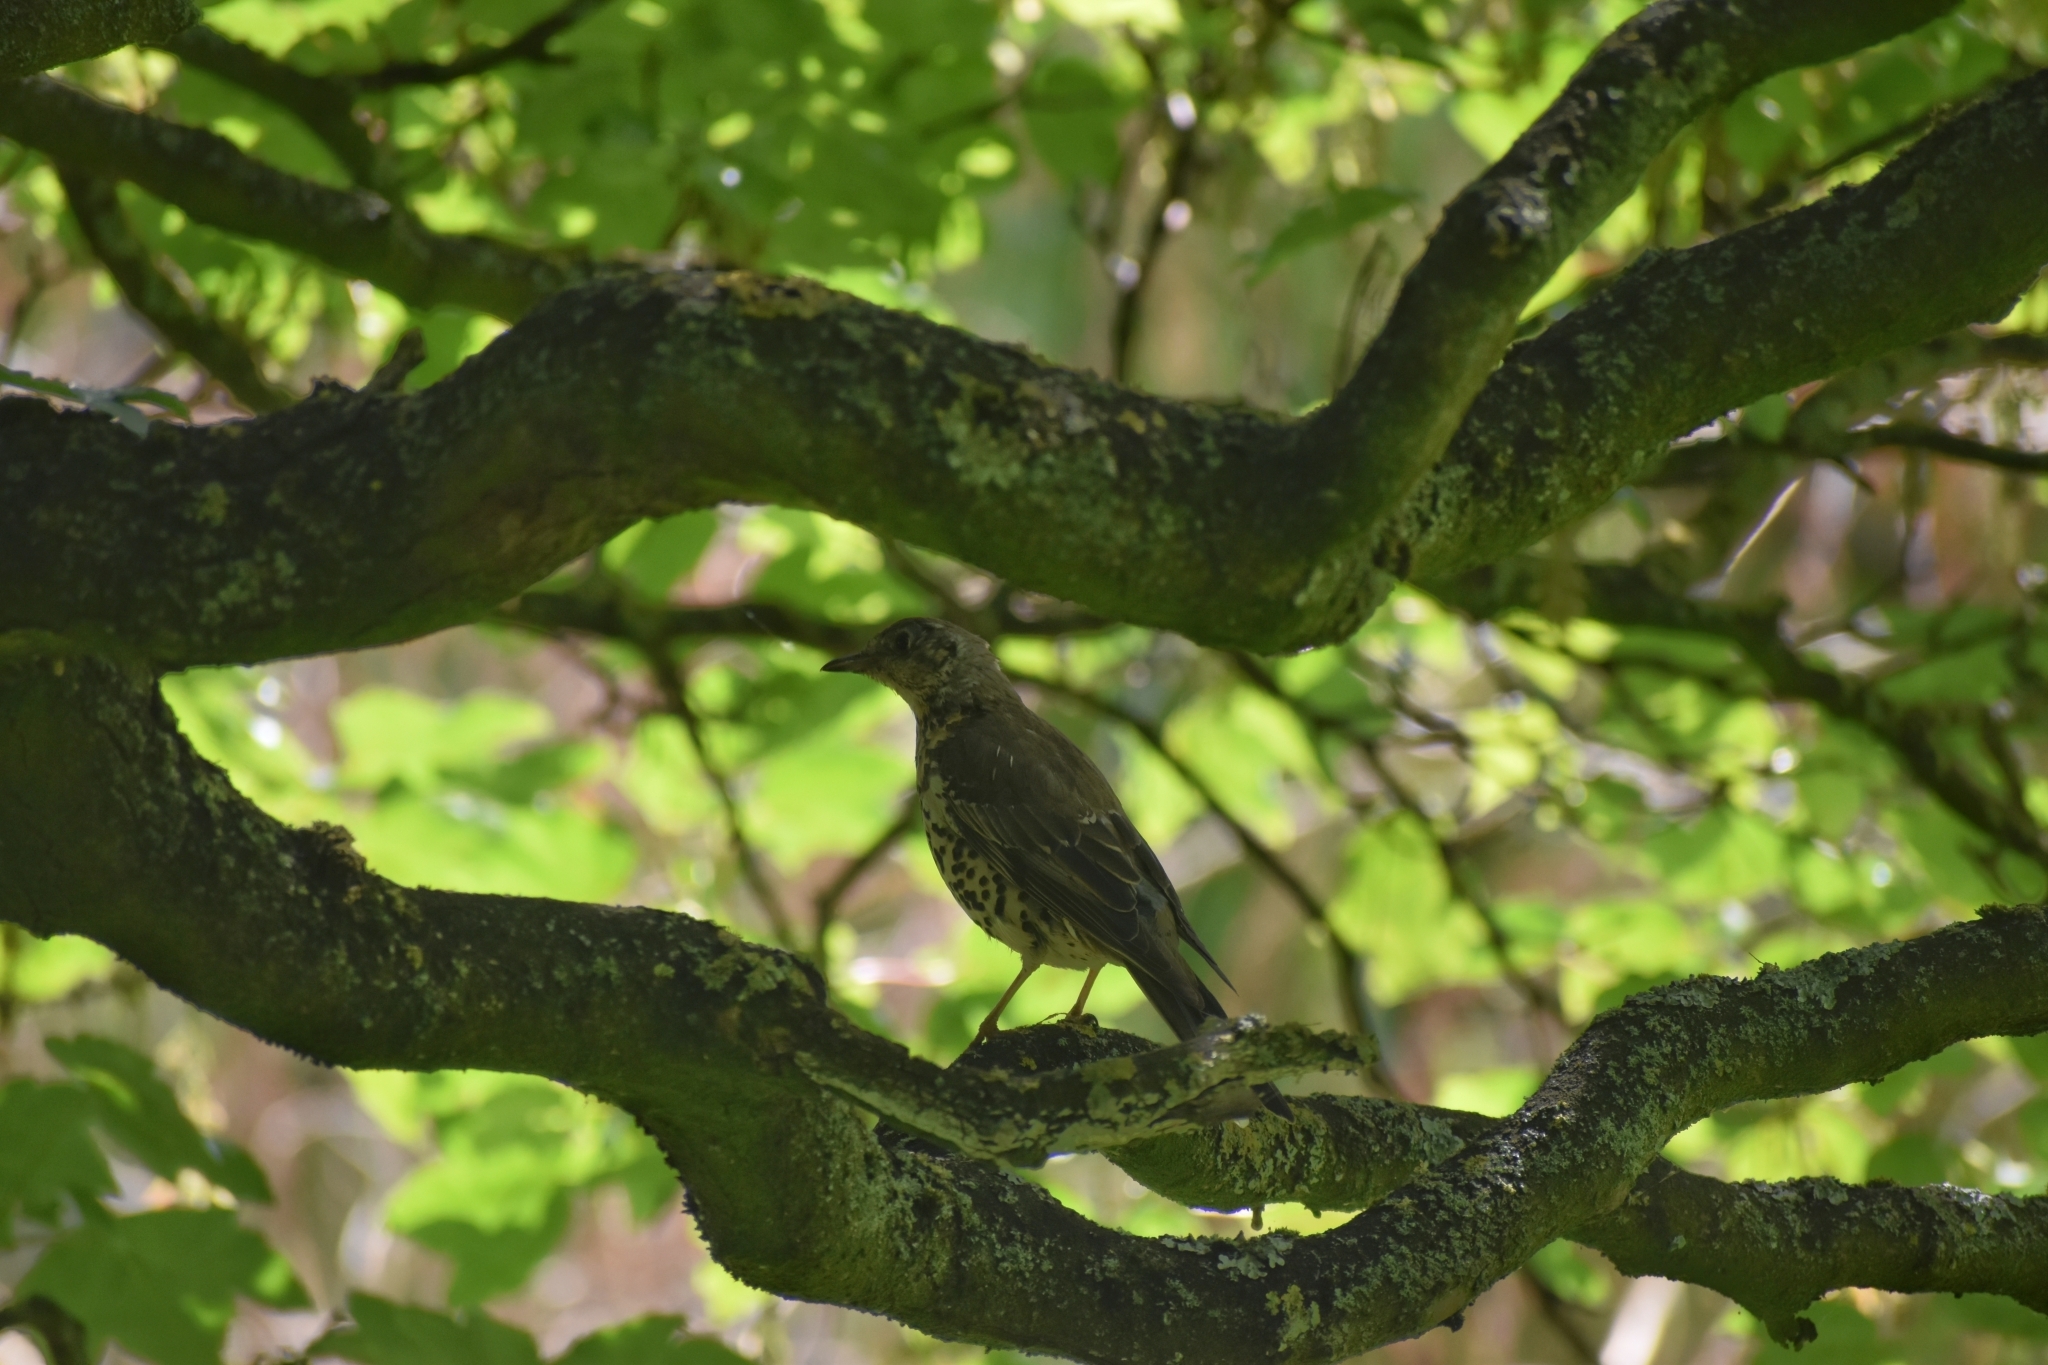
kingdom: Animalia
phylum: Chordata
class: Aves
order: Passeriformes
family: Turdidae
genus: Turdus
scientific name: Turdus viscivorus
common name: Mistle thrush
